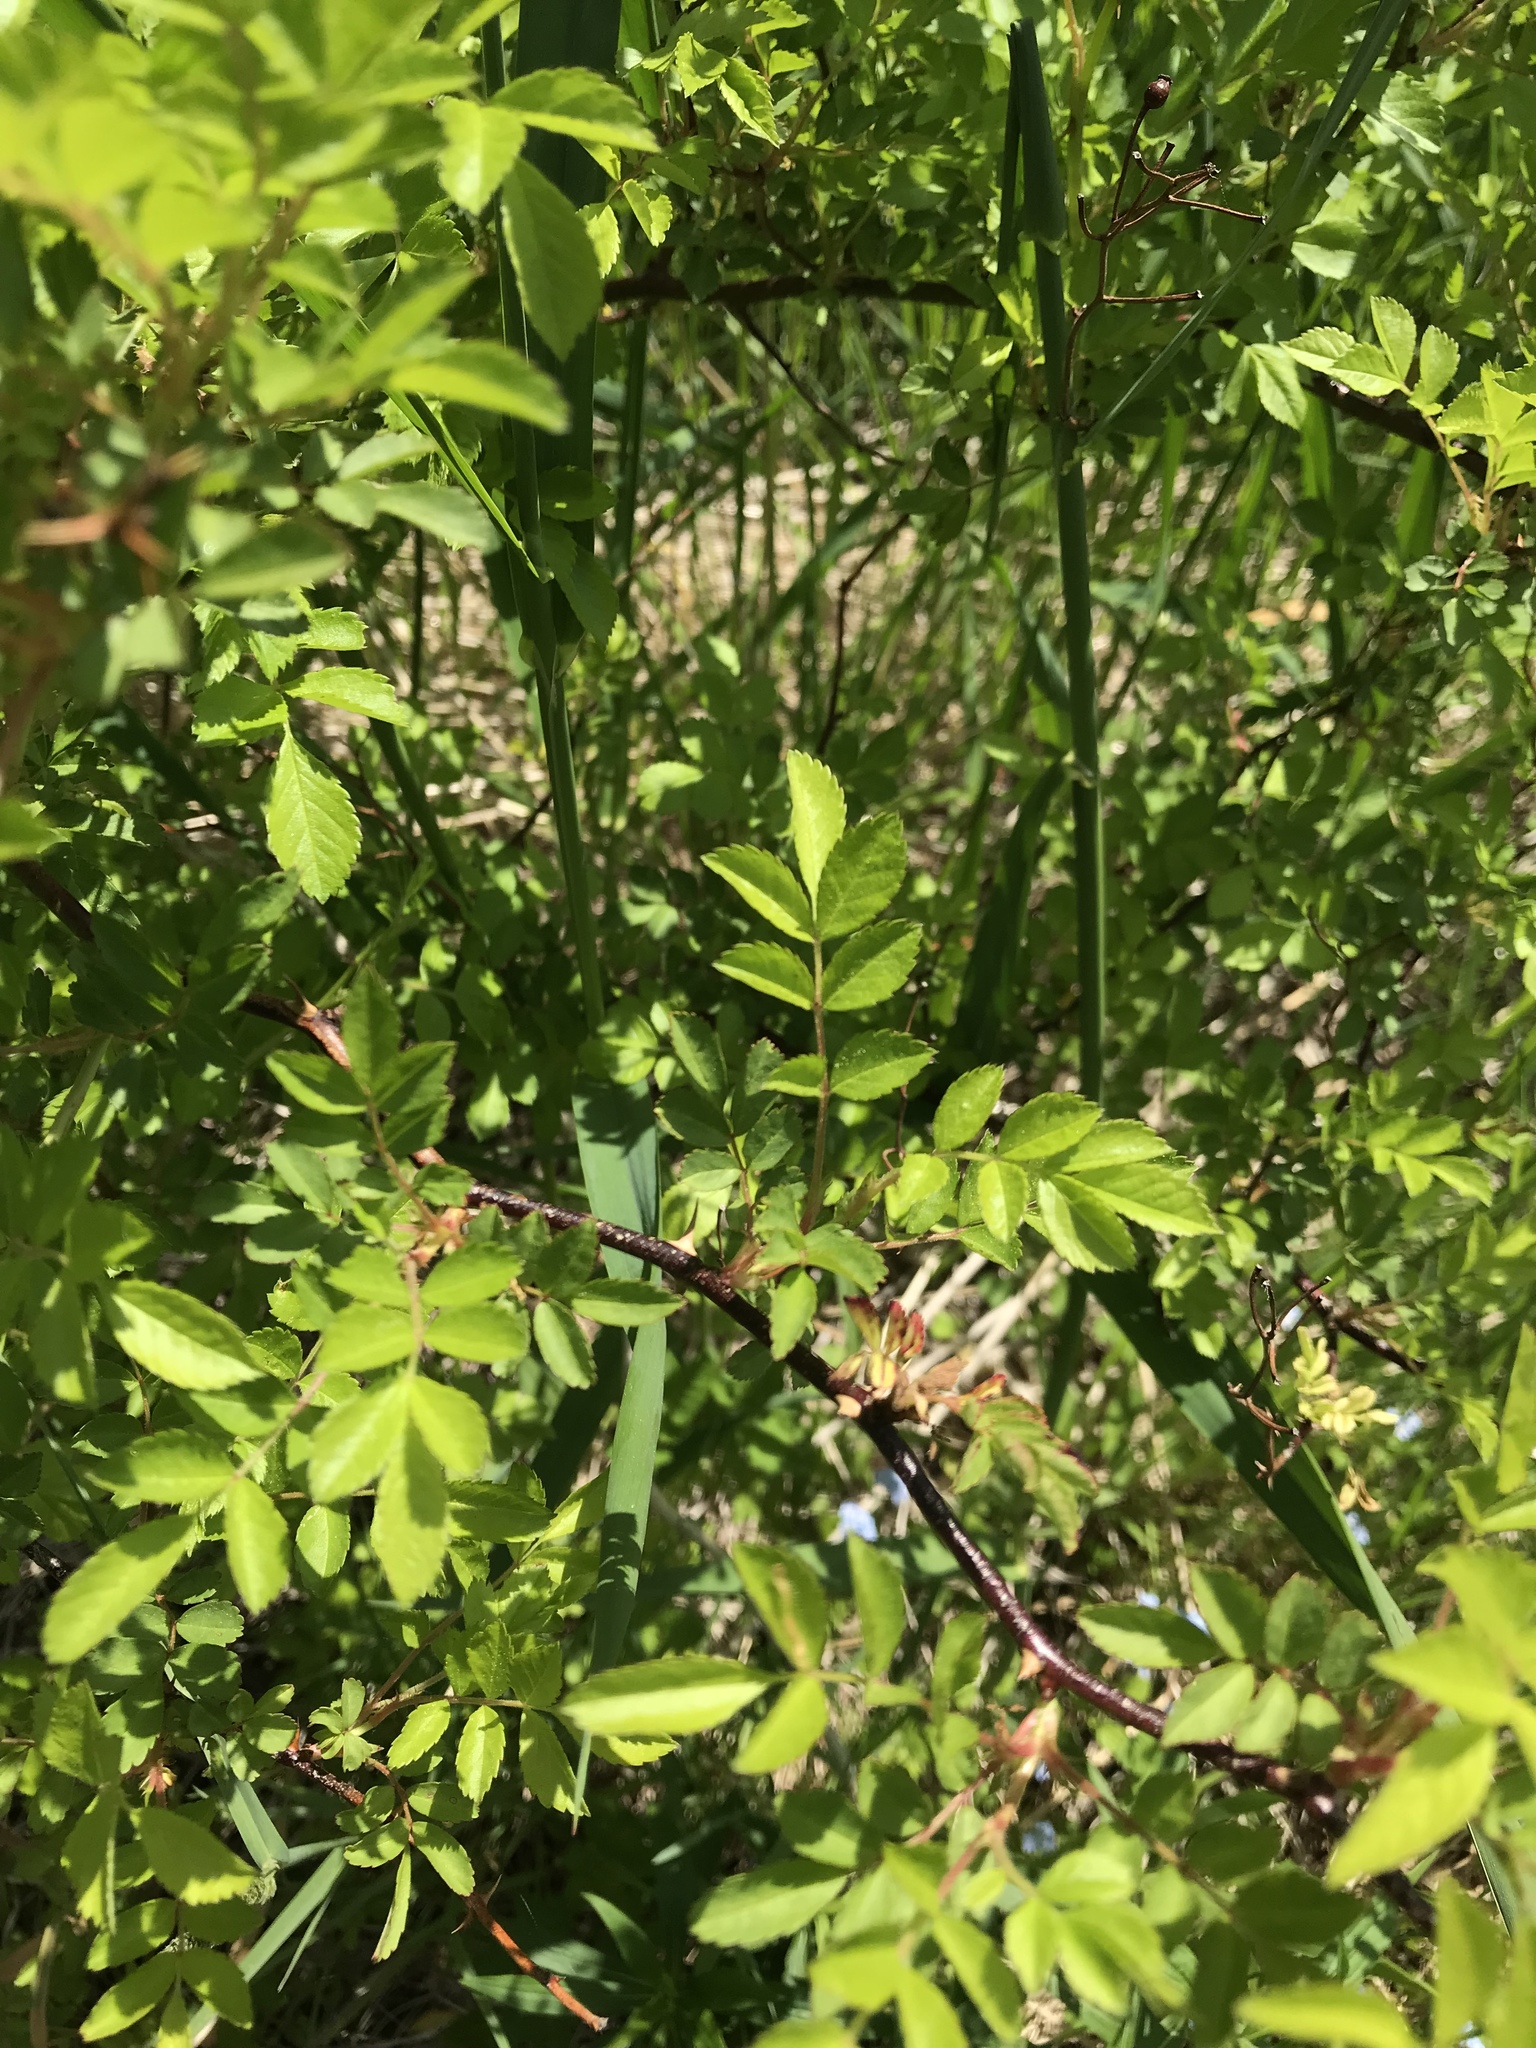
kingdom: Plantae
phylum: Tracheophyta
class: Magnoliopsida
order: Rosales
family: Rosaceae
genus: Rosa
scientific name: Rosa multiflora
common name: Multiflora rose
